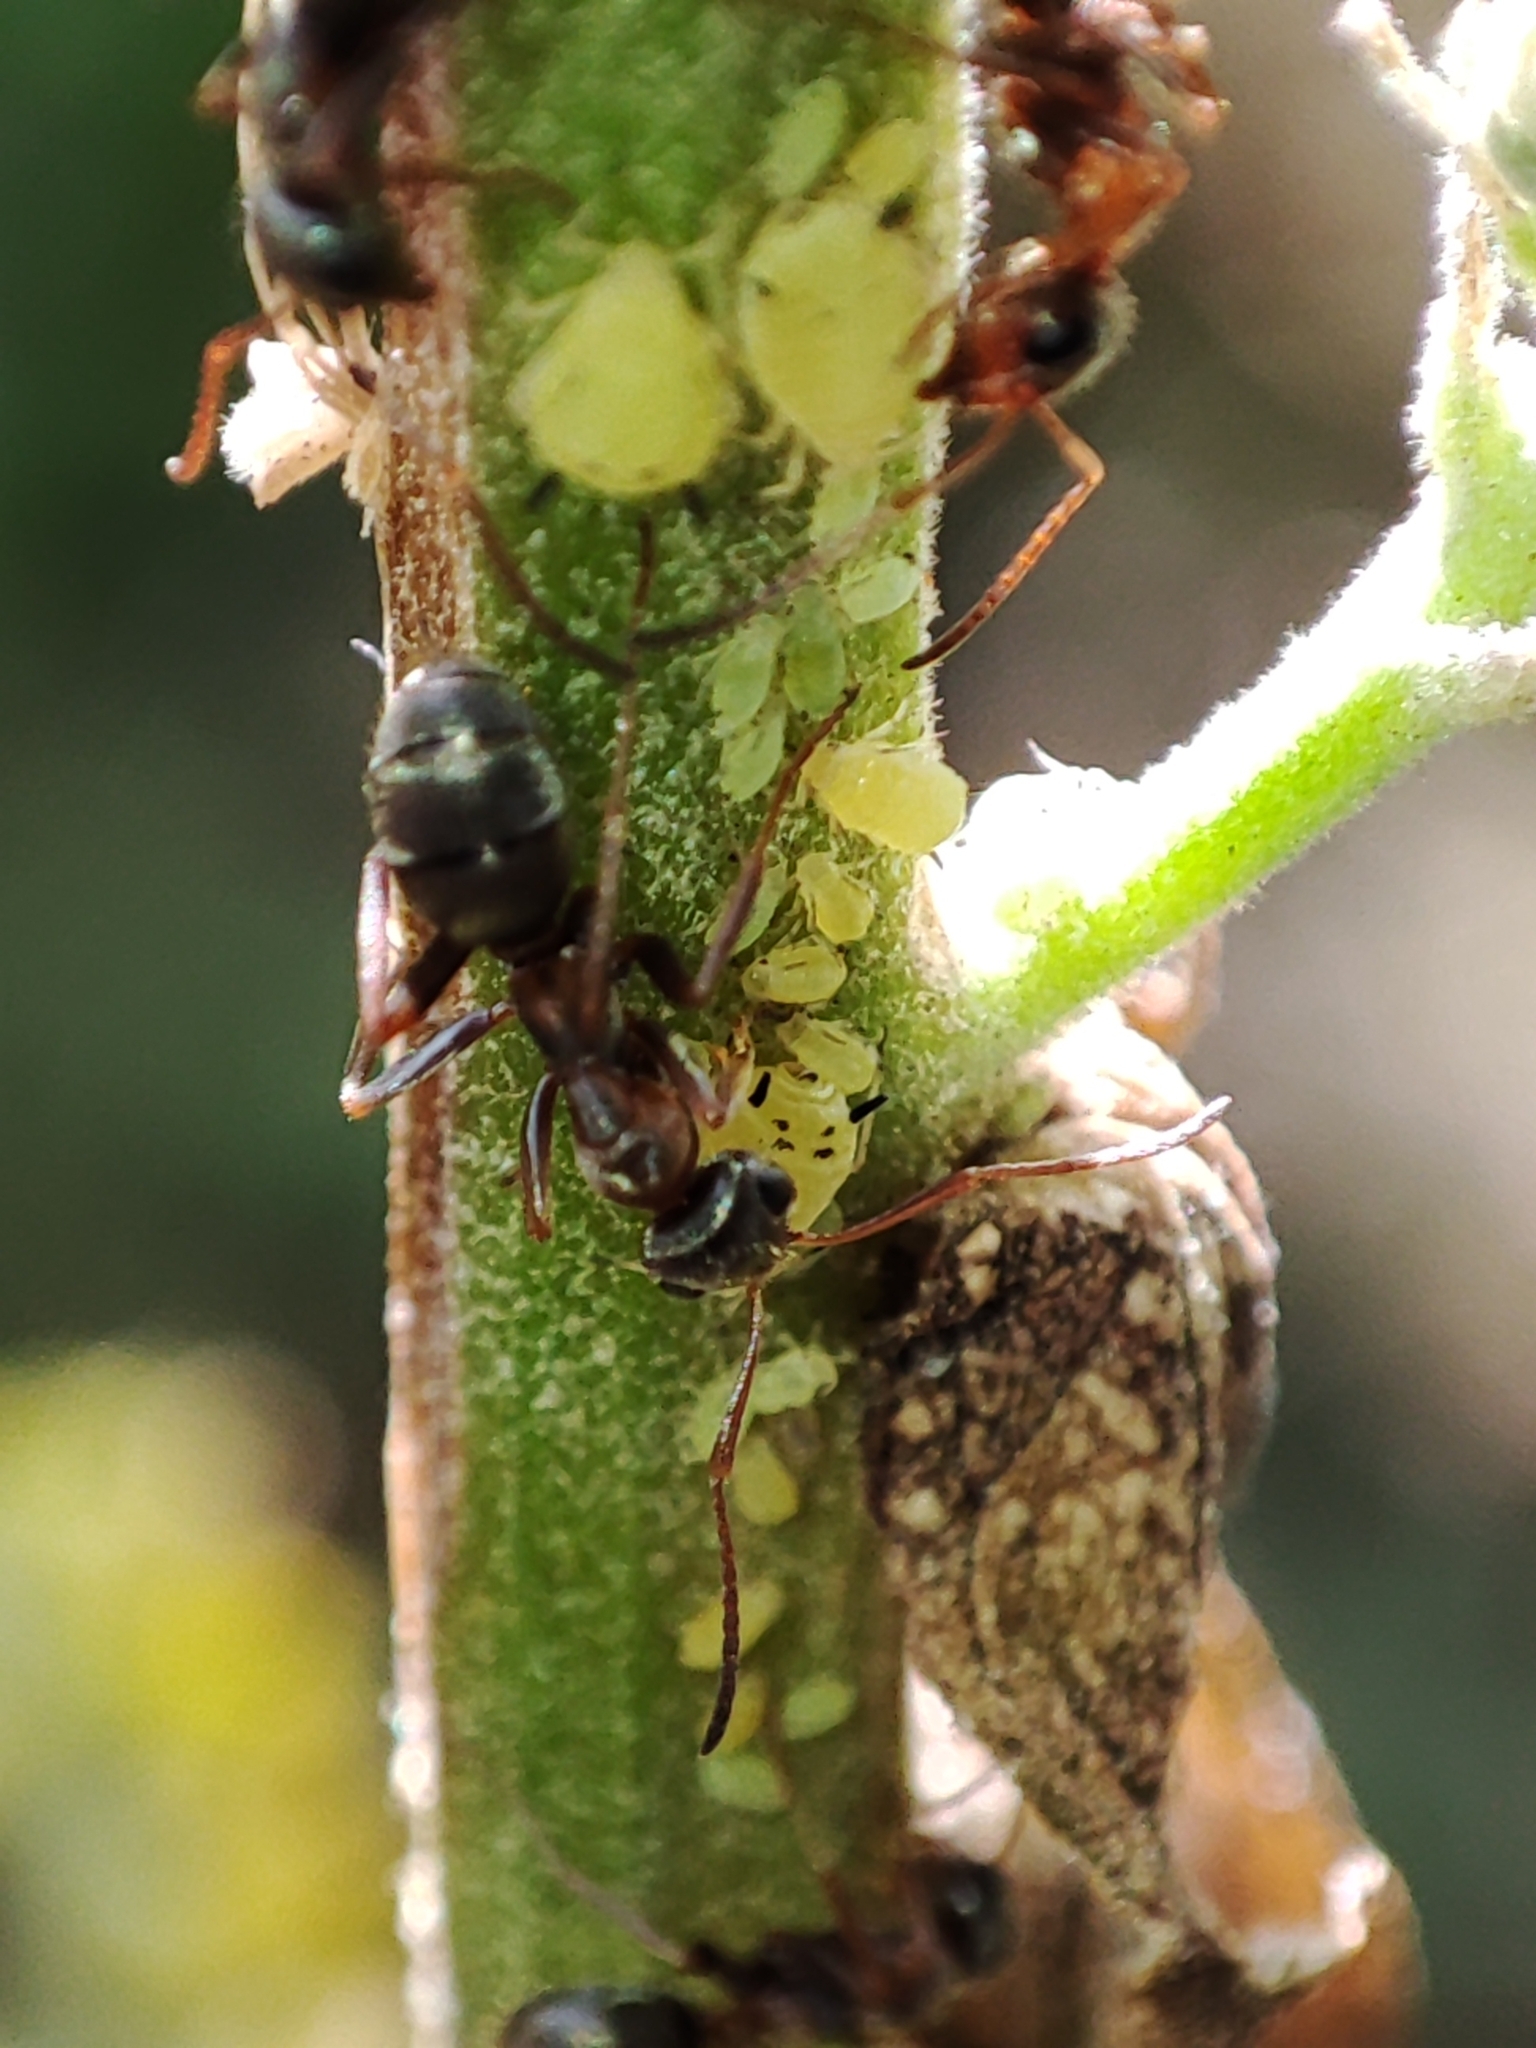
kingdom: Animalia
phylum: Arthropoda
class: Insecta
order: Hymenoptera
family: Formicidae
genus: Formica
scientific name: Formica cinerea
